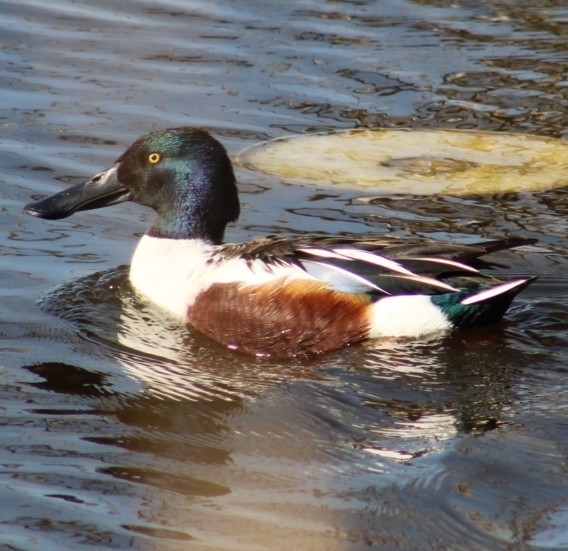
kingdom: Animalia
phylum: Chordata
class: Aves
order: Anseriformes
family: Anatidae
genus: Spatula
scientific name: Spatula clypeata
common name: Northern shoveler
